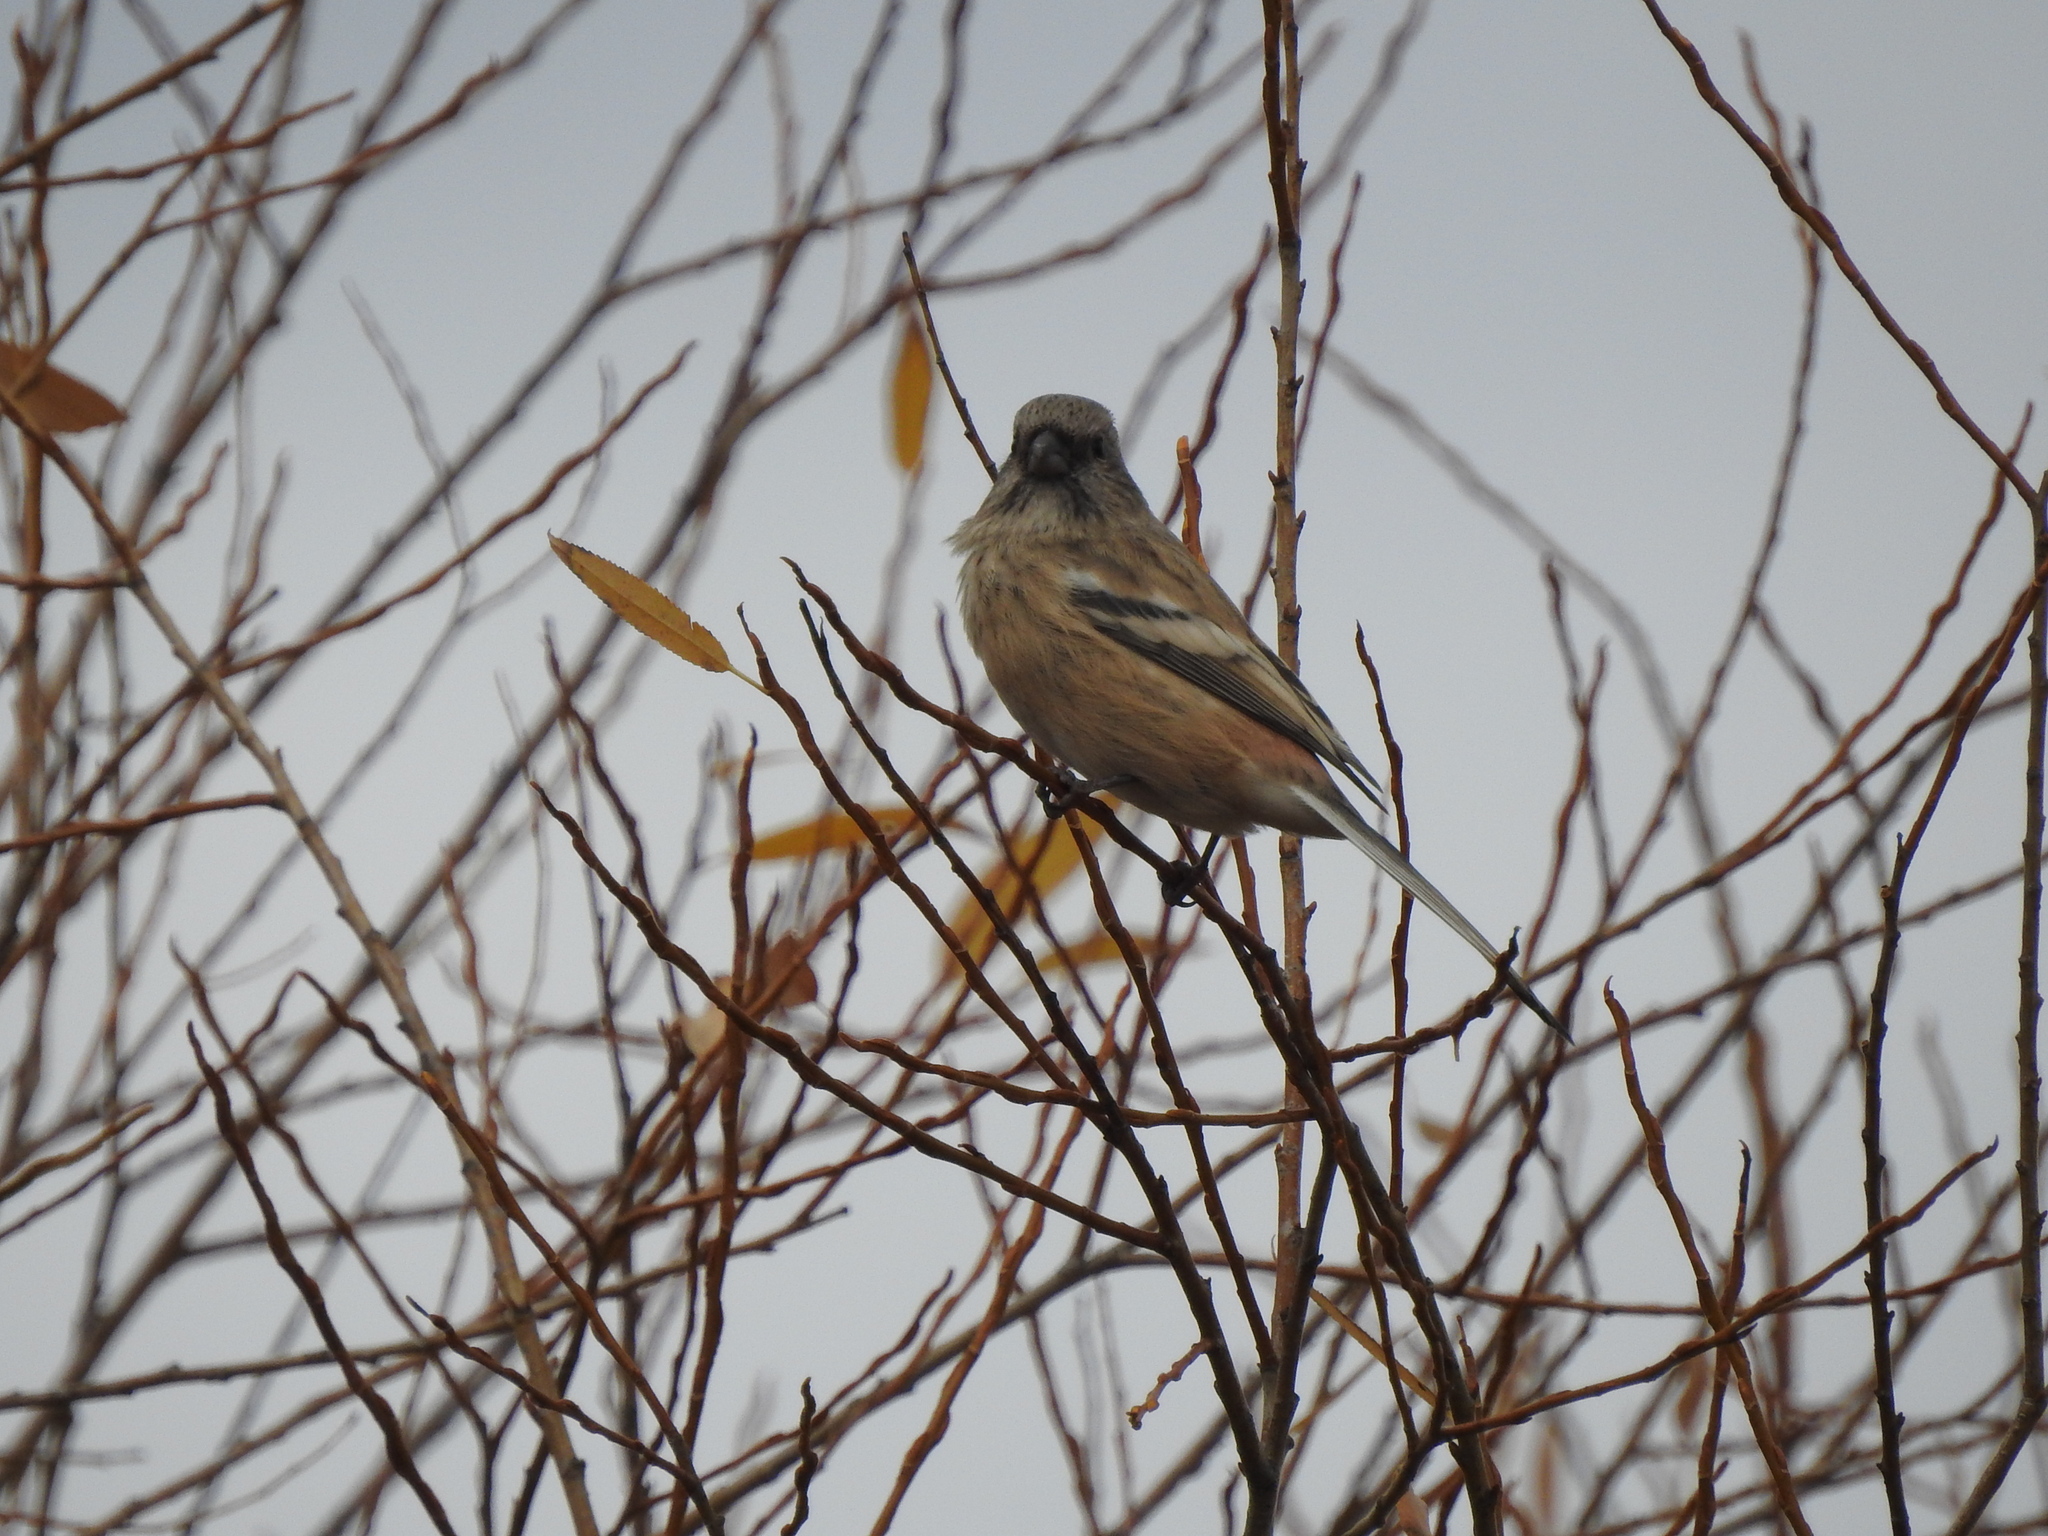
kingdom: Animalia
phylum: Chordata
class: Aves
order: Passeriformes
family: Fringillidae
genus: Carpodacus
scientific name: Carpodacus sibiricus
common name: Long-tailed rosefinch
